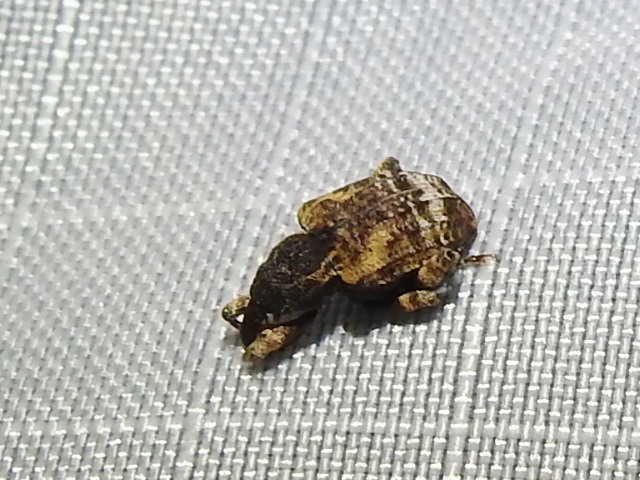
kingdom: Animalia
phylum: Arthropoda
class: Insecta
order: Coleoptera
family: Curculionidae
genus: Conotrachelus
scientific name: Conotrachelus anaglypticus
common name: Cambium curculio
